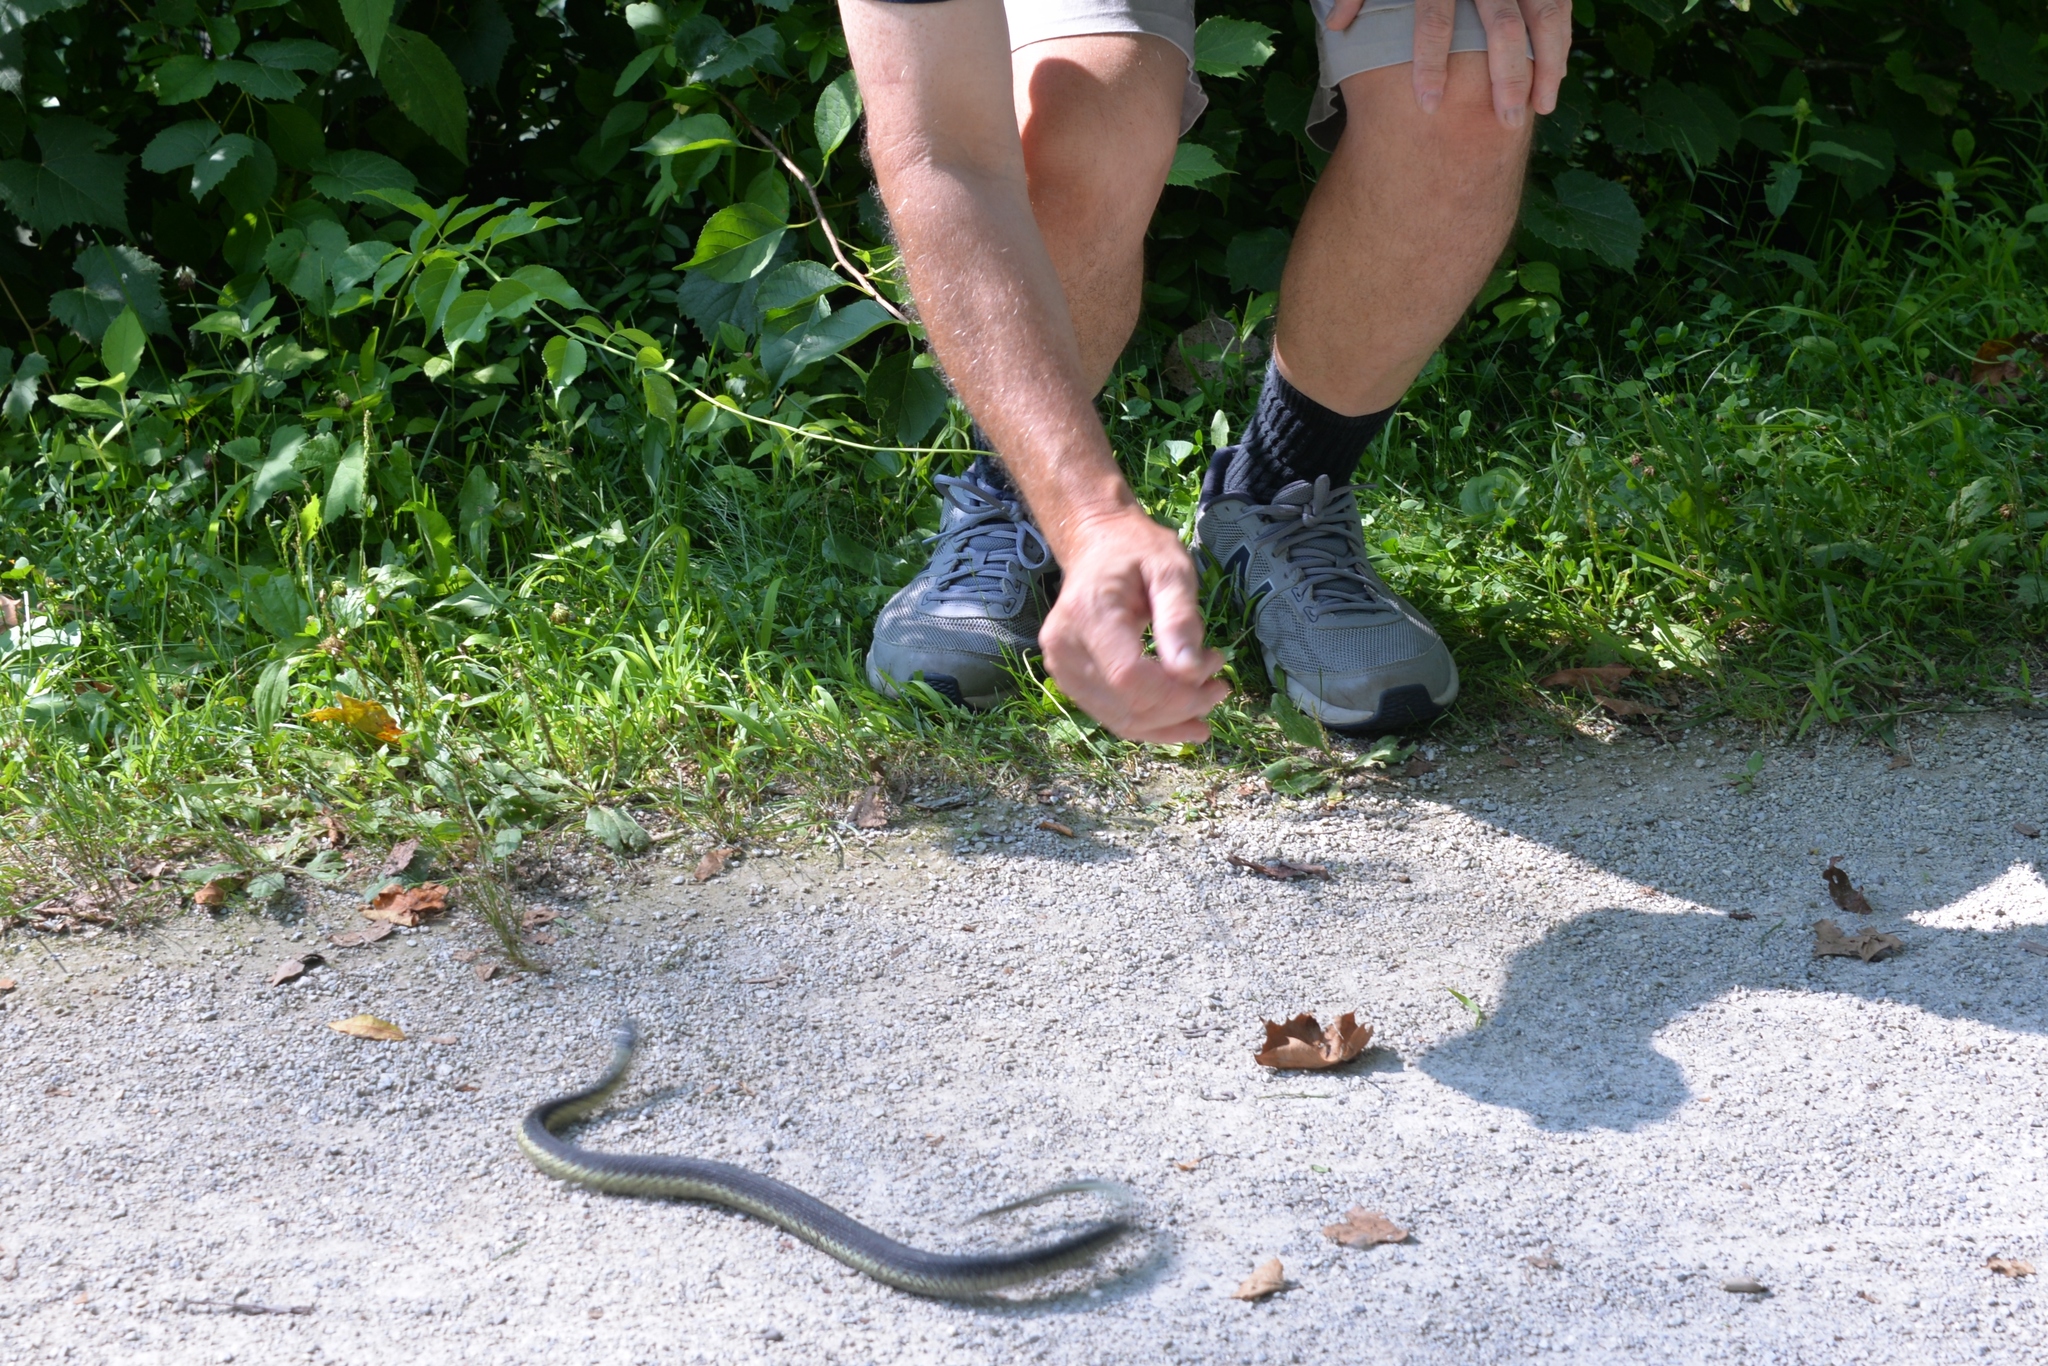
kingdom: Animalia
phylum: Chordata
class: Squamata
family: Colubridae
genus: Thamnophis
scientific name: Thamnophis sirtalis
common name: Common garter snake
